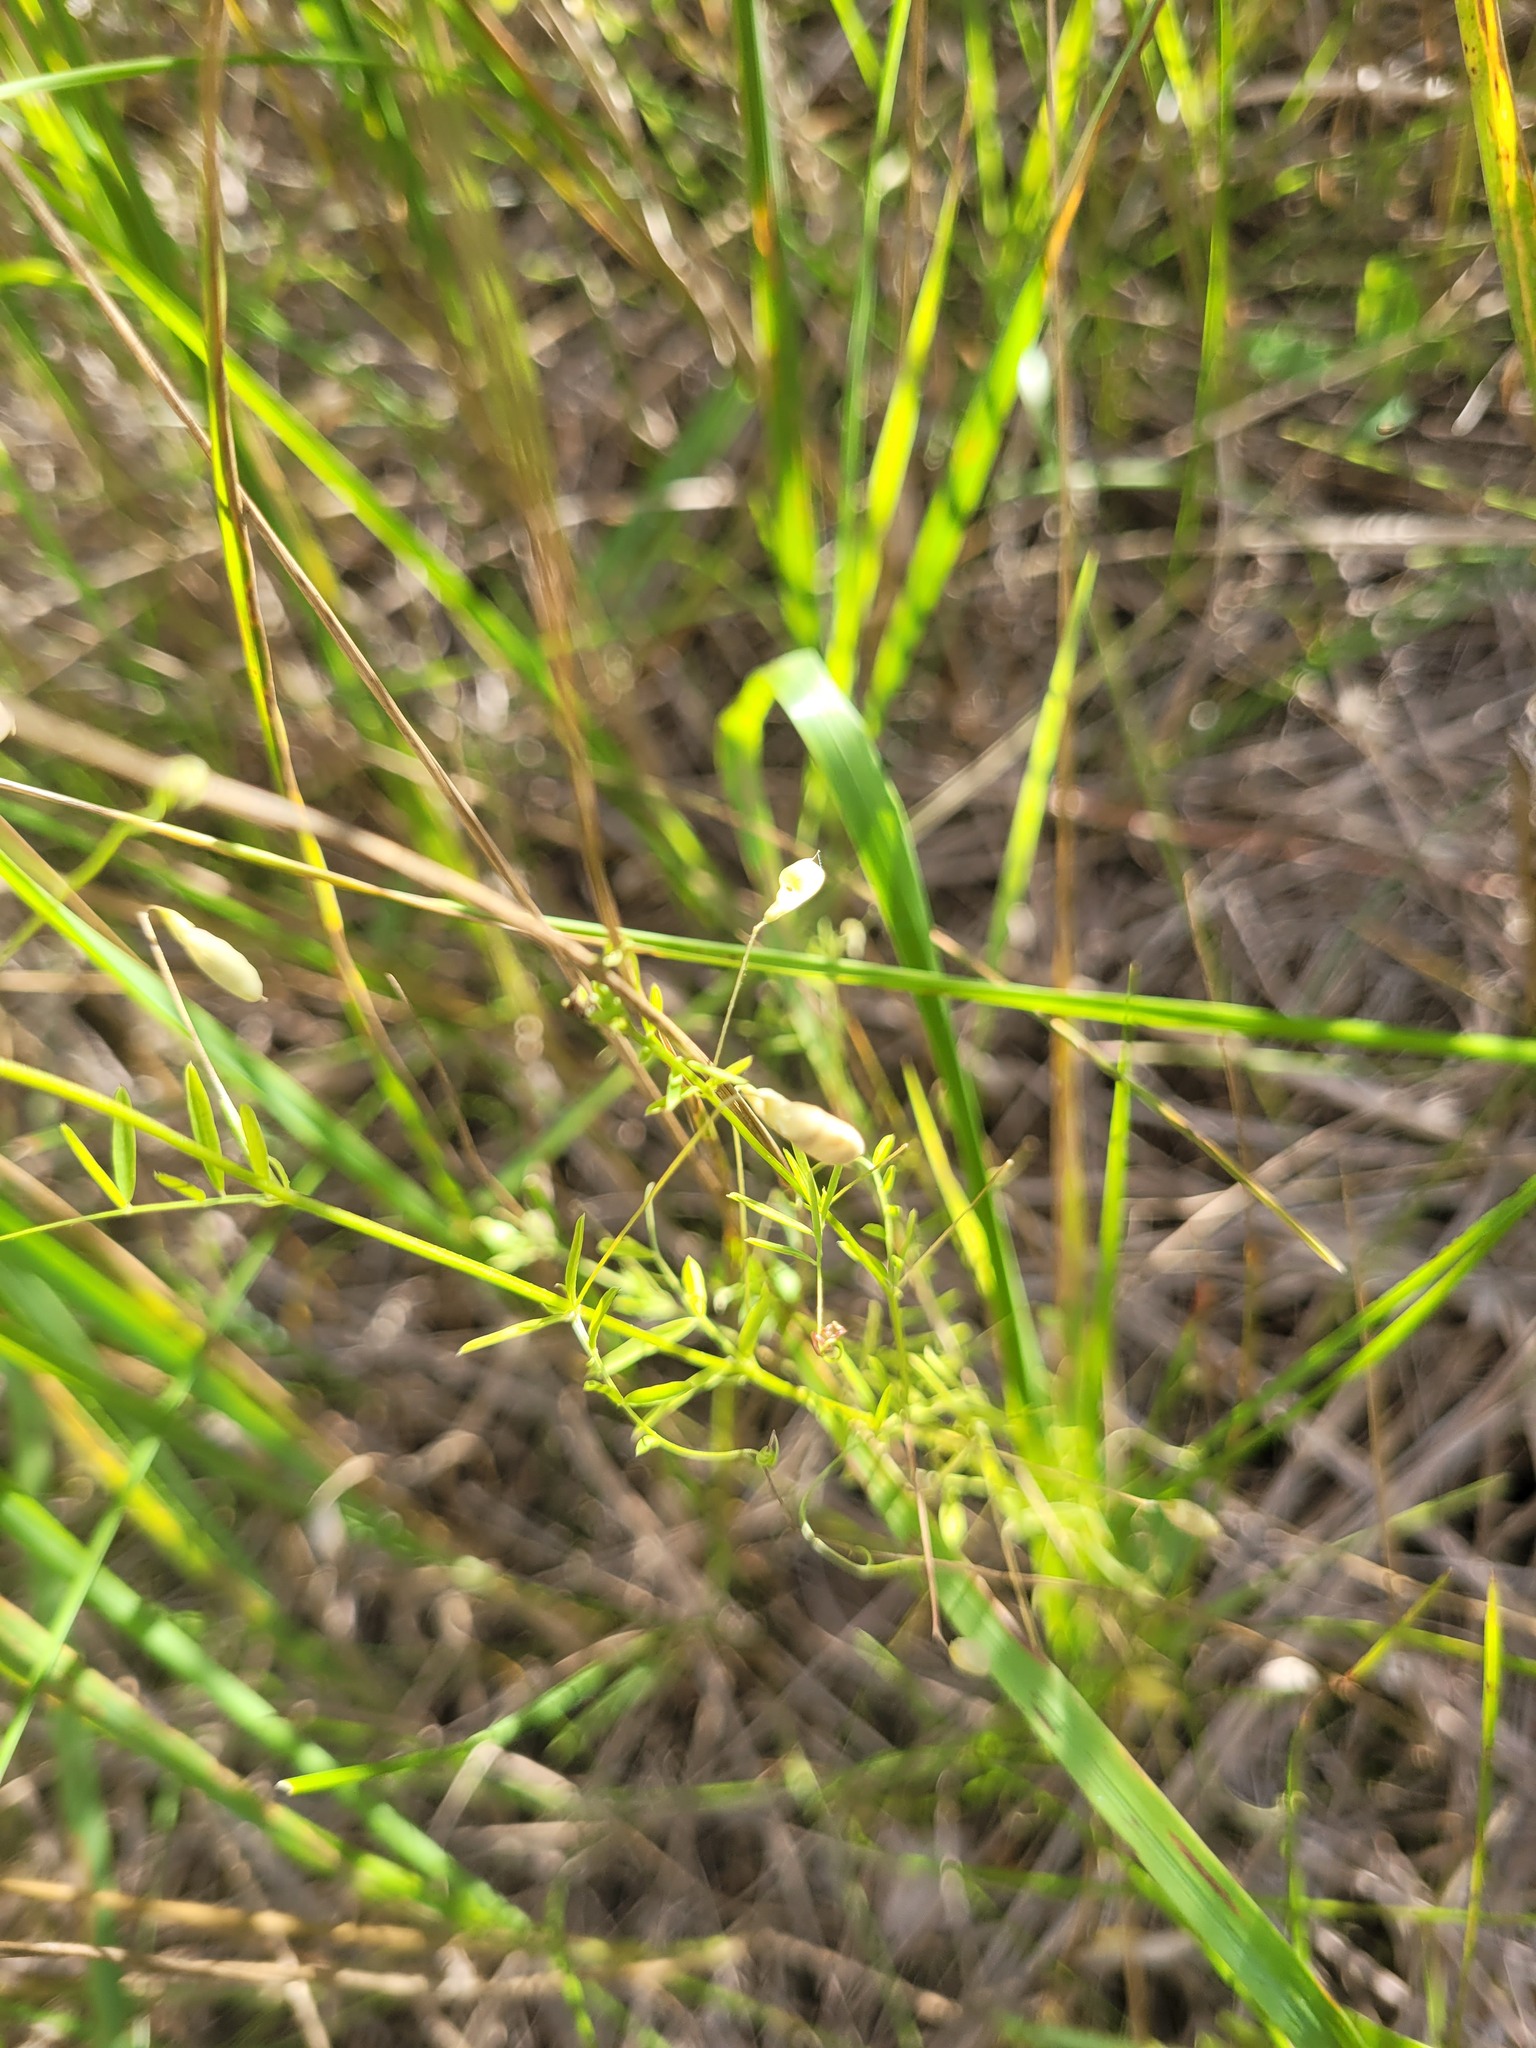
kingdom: Plantae
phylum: Tracheophyta
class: Magnoliopsida
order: Fabales
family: Fabaceae
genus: Vicia
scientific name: Vicia tetrasperma
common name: Smooth tare
